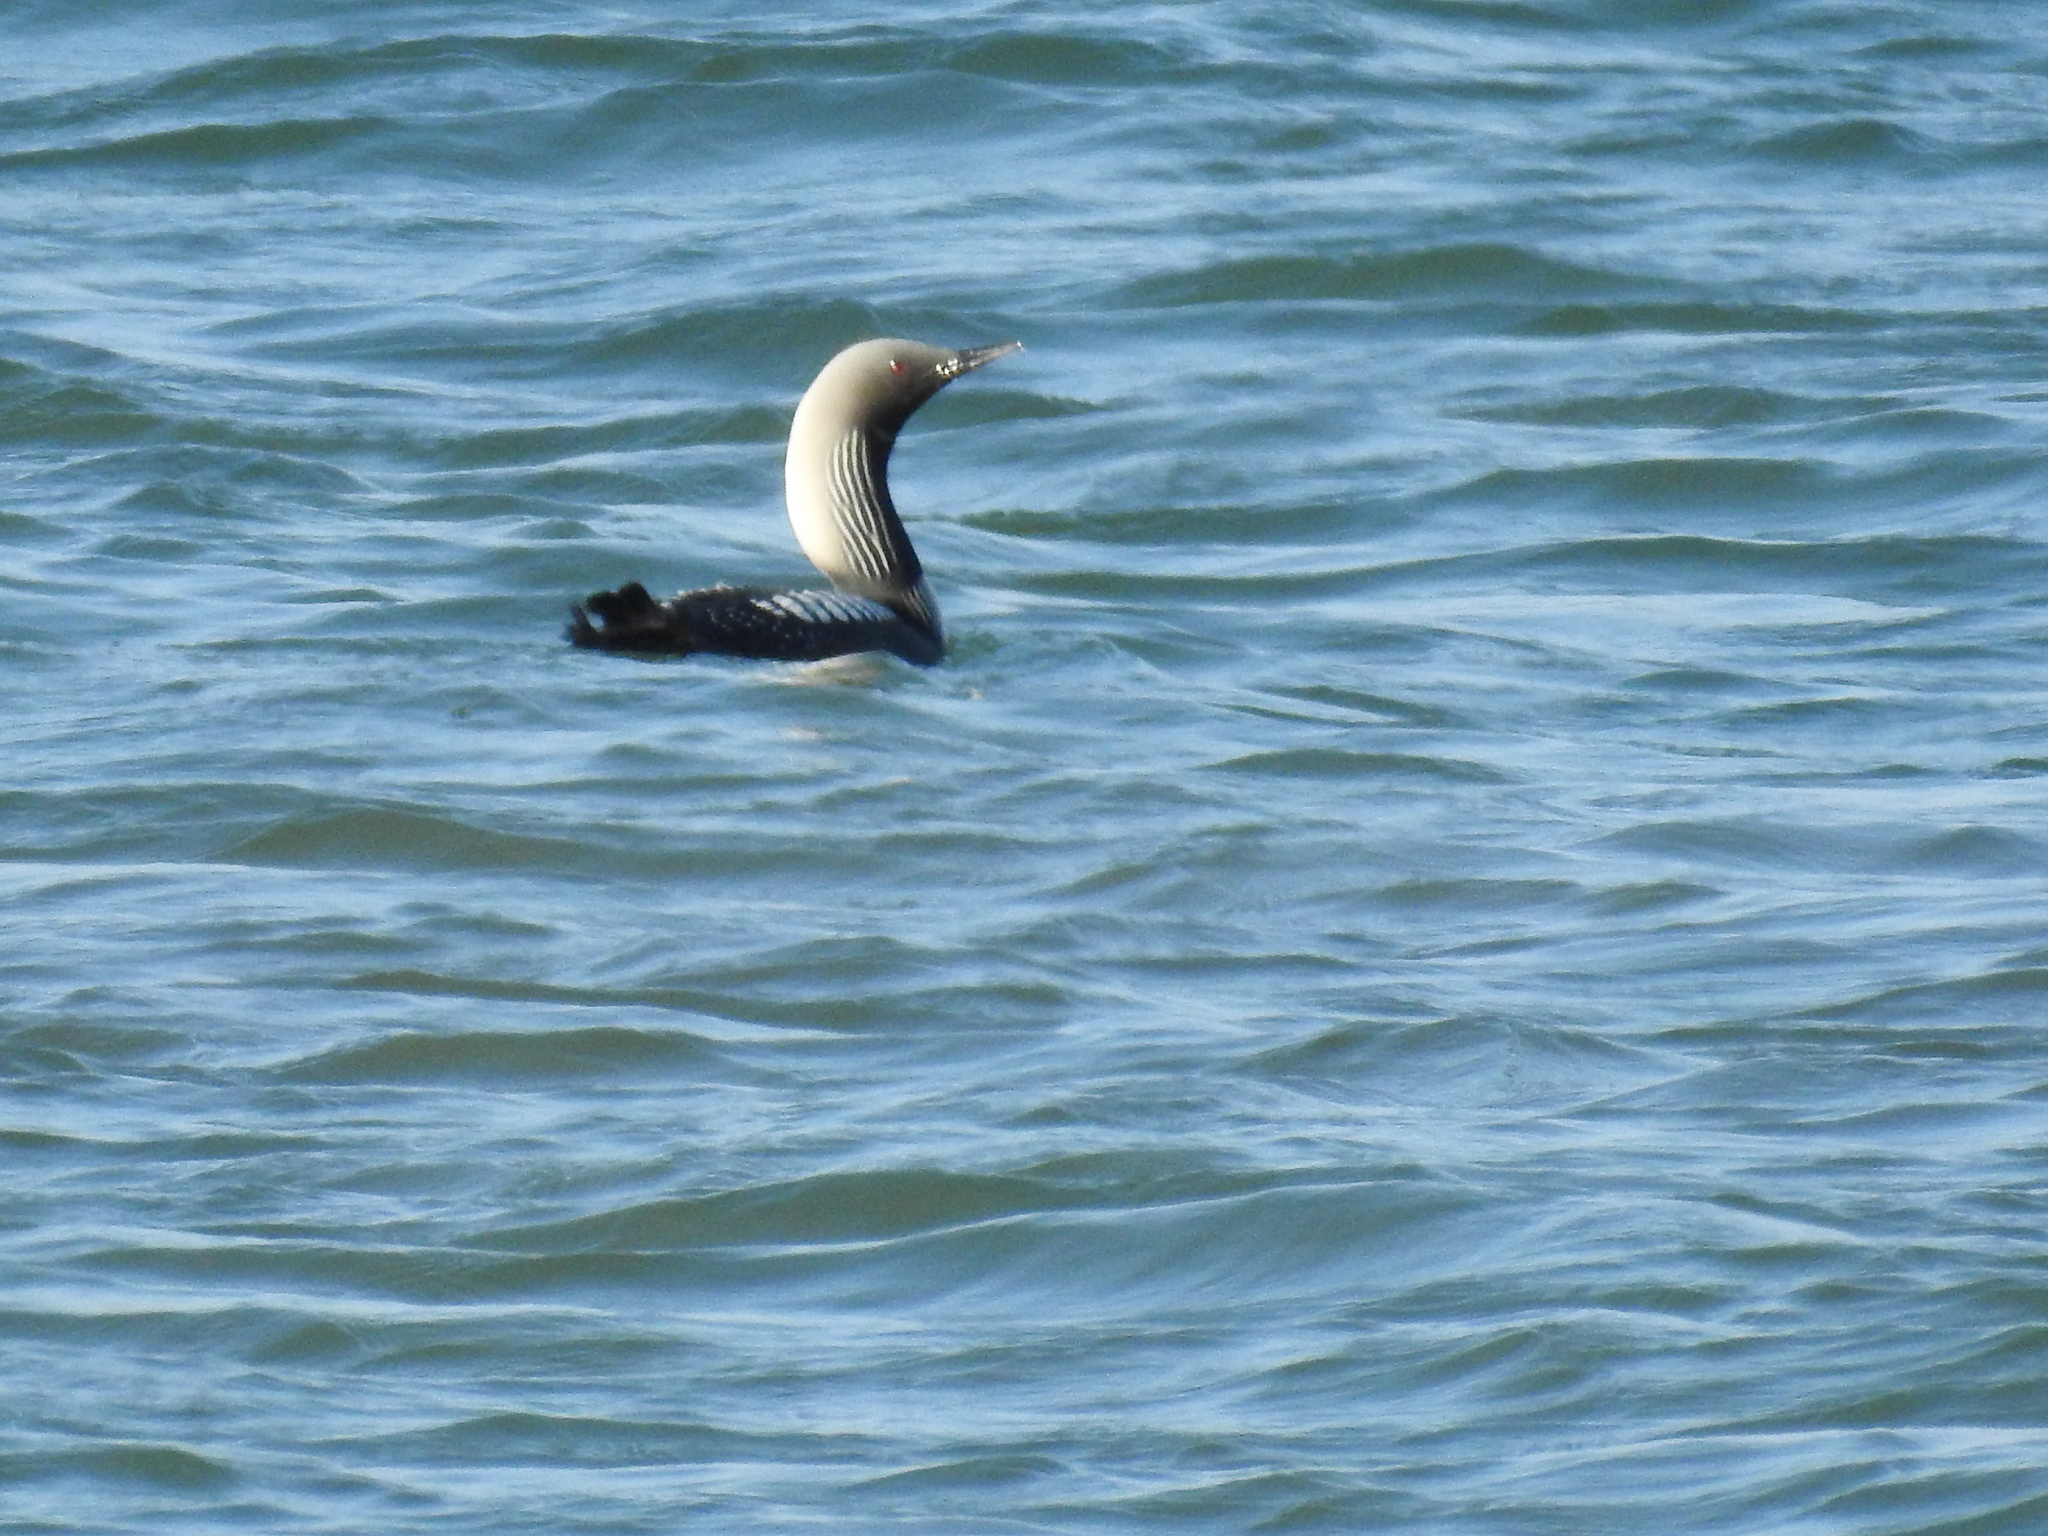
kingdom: Animalia
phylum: Chordata
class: Aves
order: Gaviiformes
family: Gaviidae
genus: Gavia
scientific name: Gavia pacifica
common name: Pacific loon
